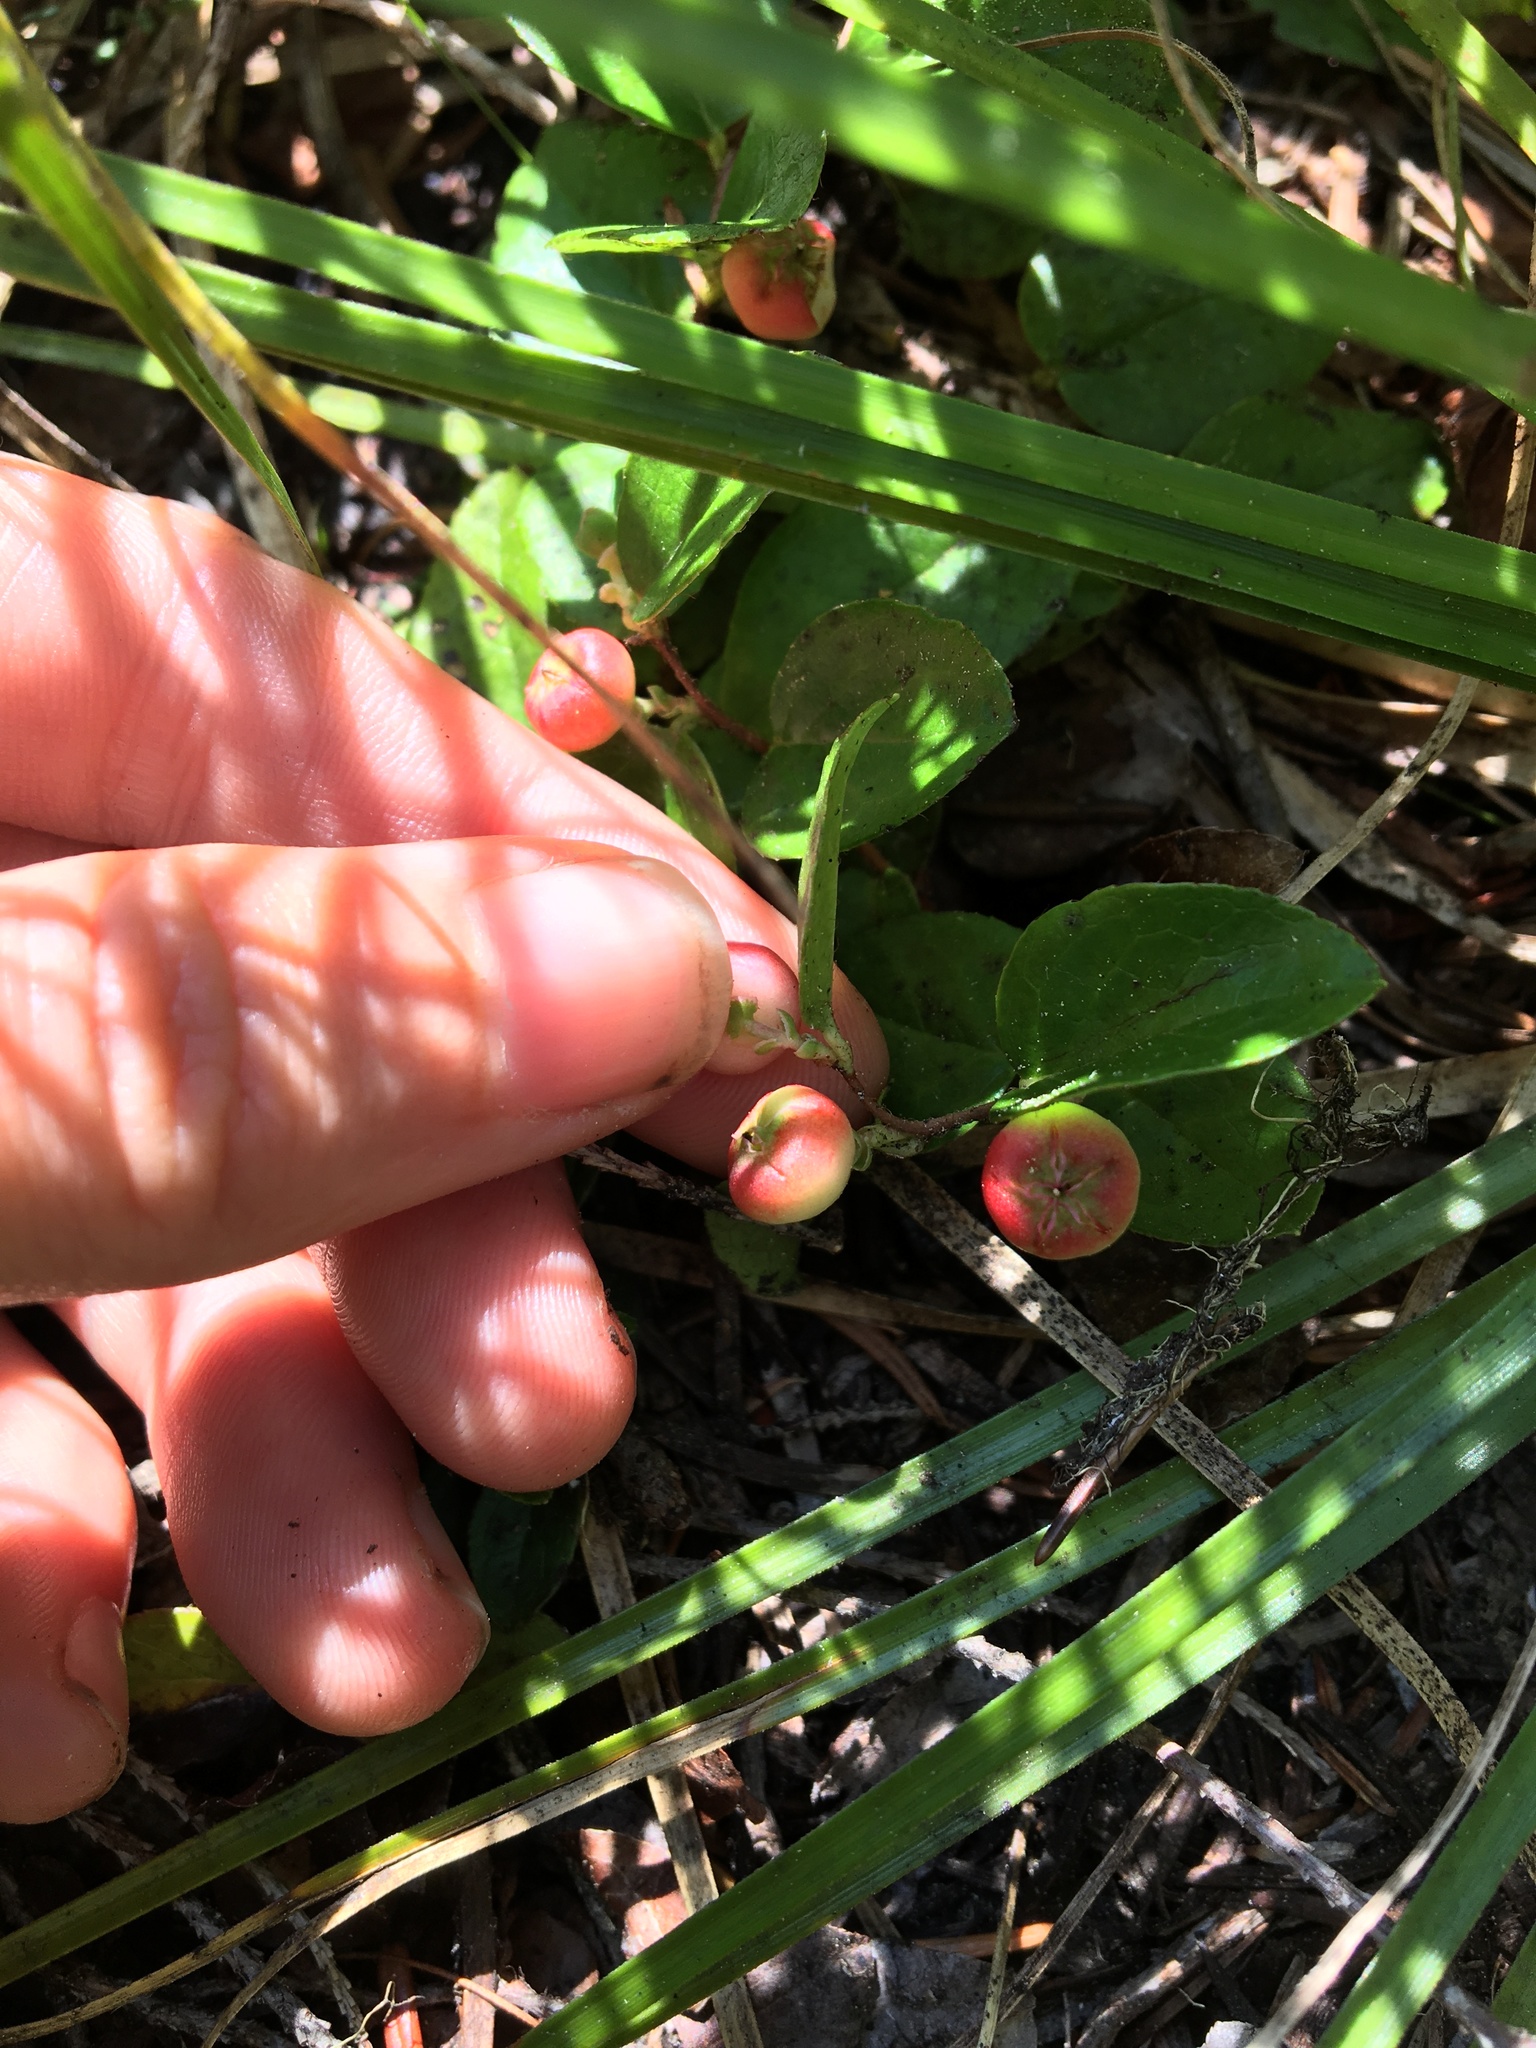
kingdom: Plantae
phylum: Tracheophyta
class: Magnoliopsida
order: Ericales
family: Ericaceae
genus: Gaultheria
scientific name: Gaultheria humifusa
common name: Alpine wintergreen
